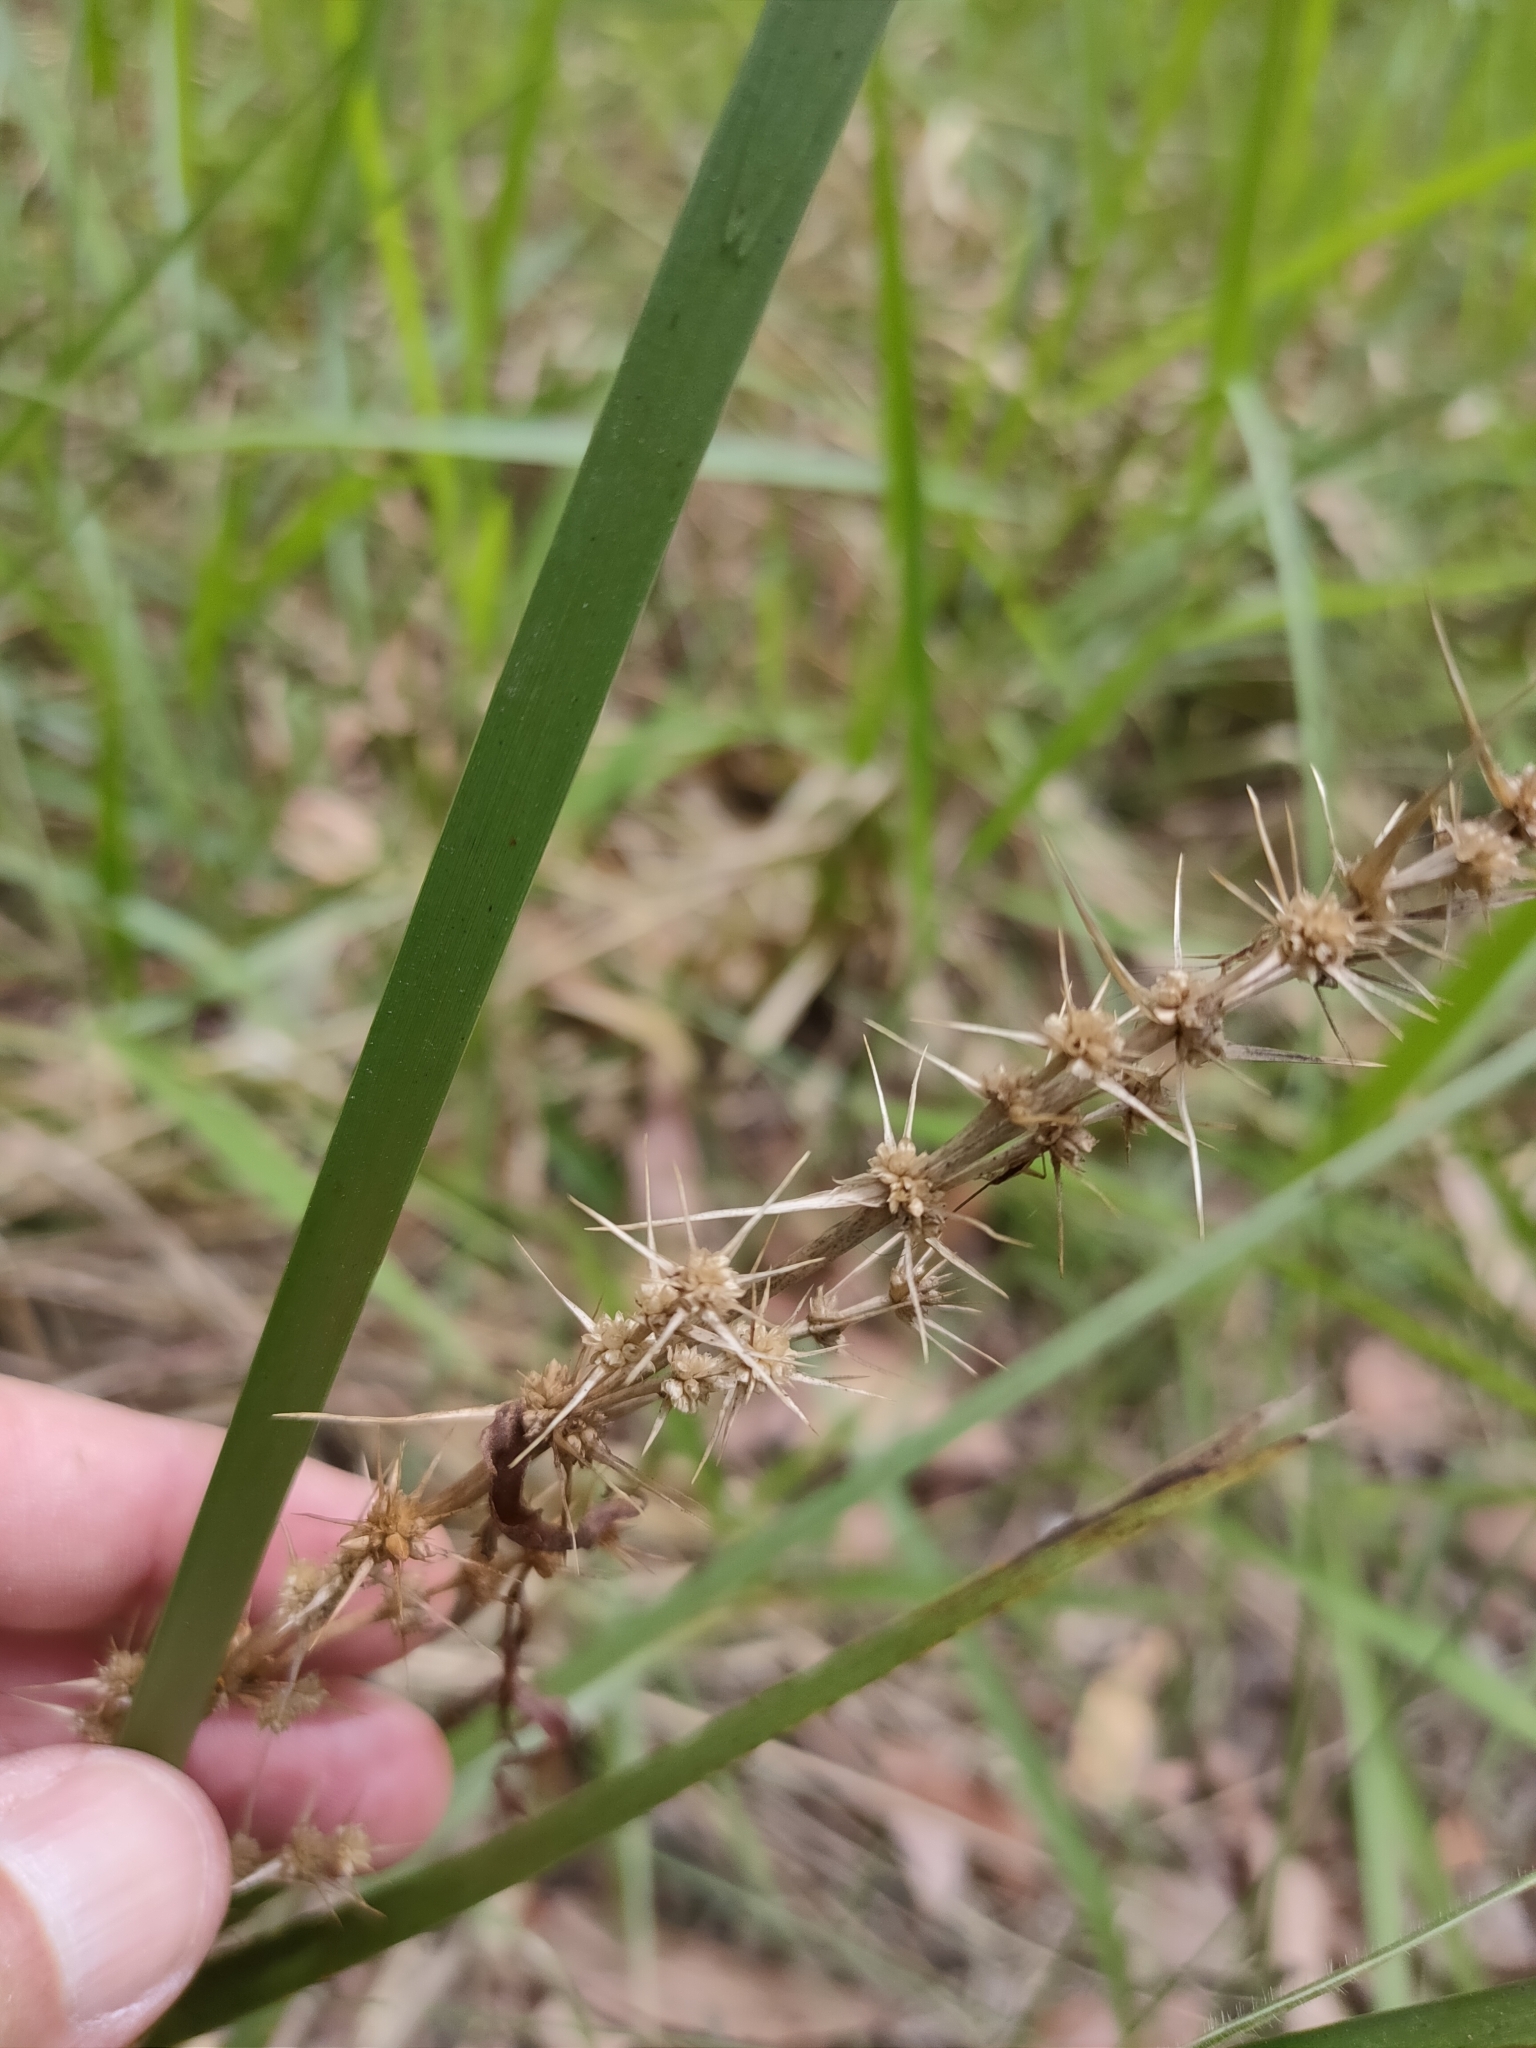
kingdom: Plantae
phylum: Tracheophyta
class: Liliopsida
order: Asparagales
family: Asparagaceae
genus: Lomandra
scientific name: Lomandra longifolia
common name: Longleaf mat-rush
